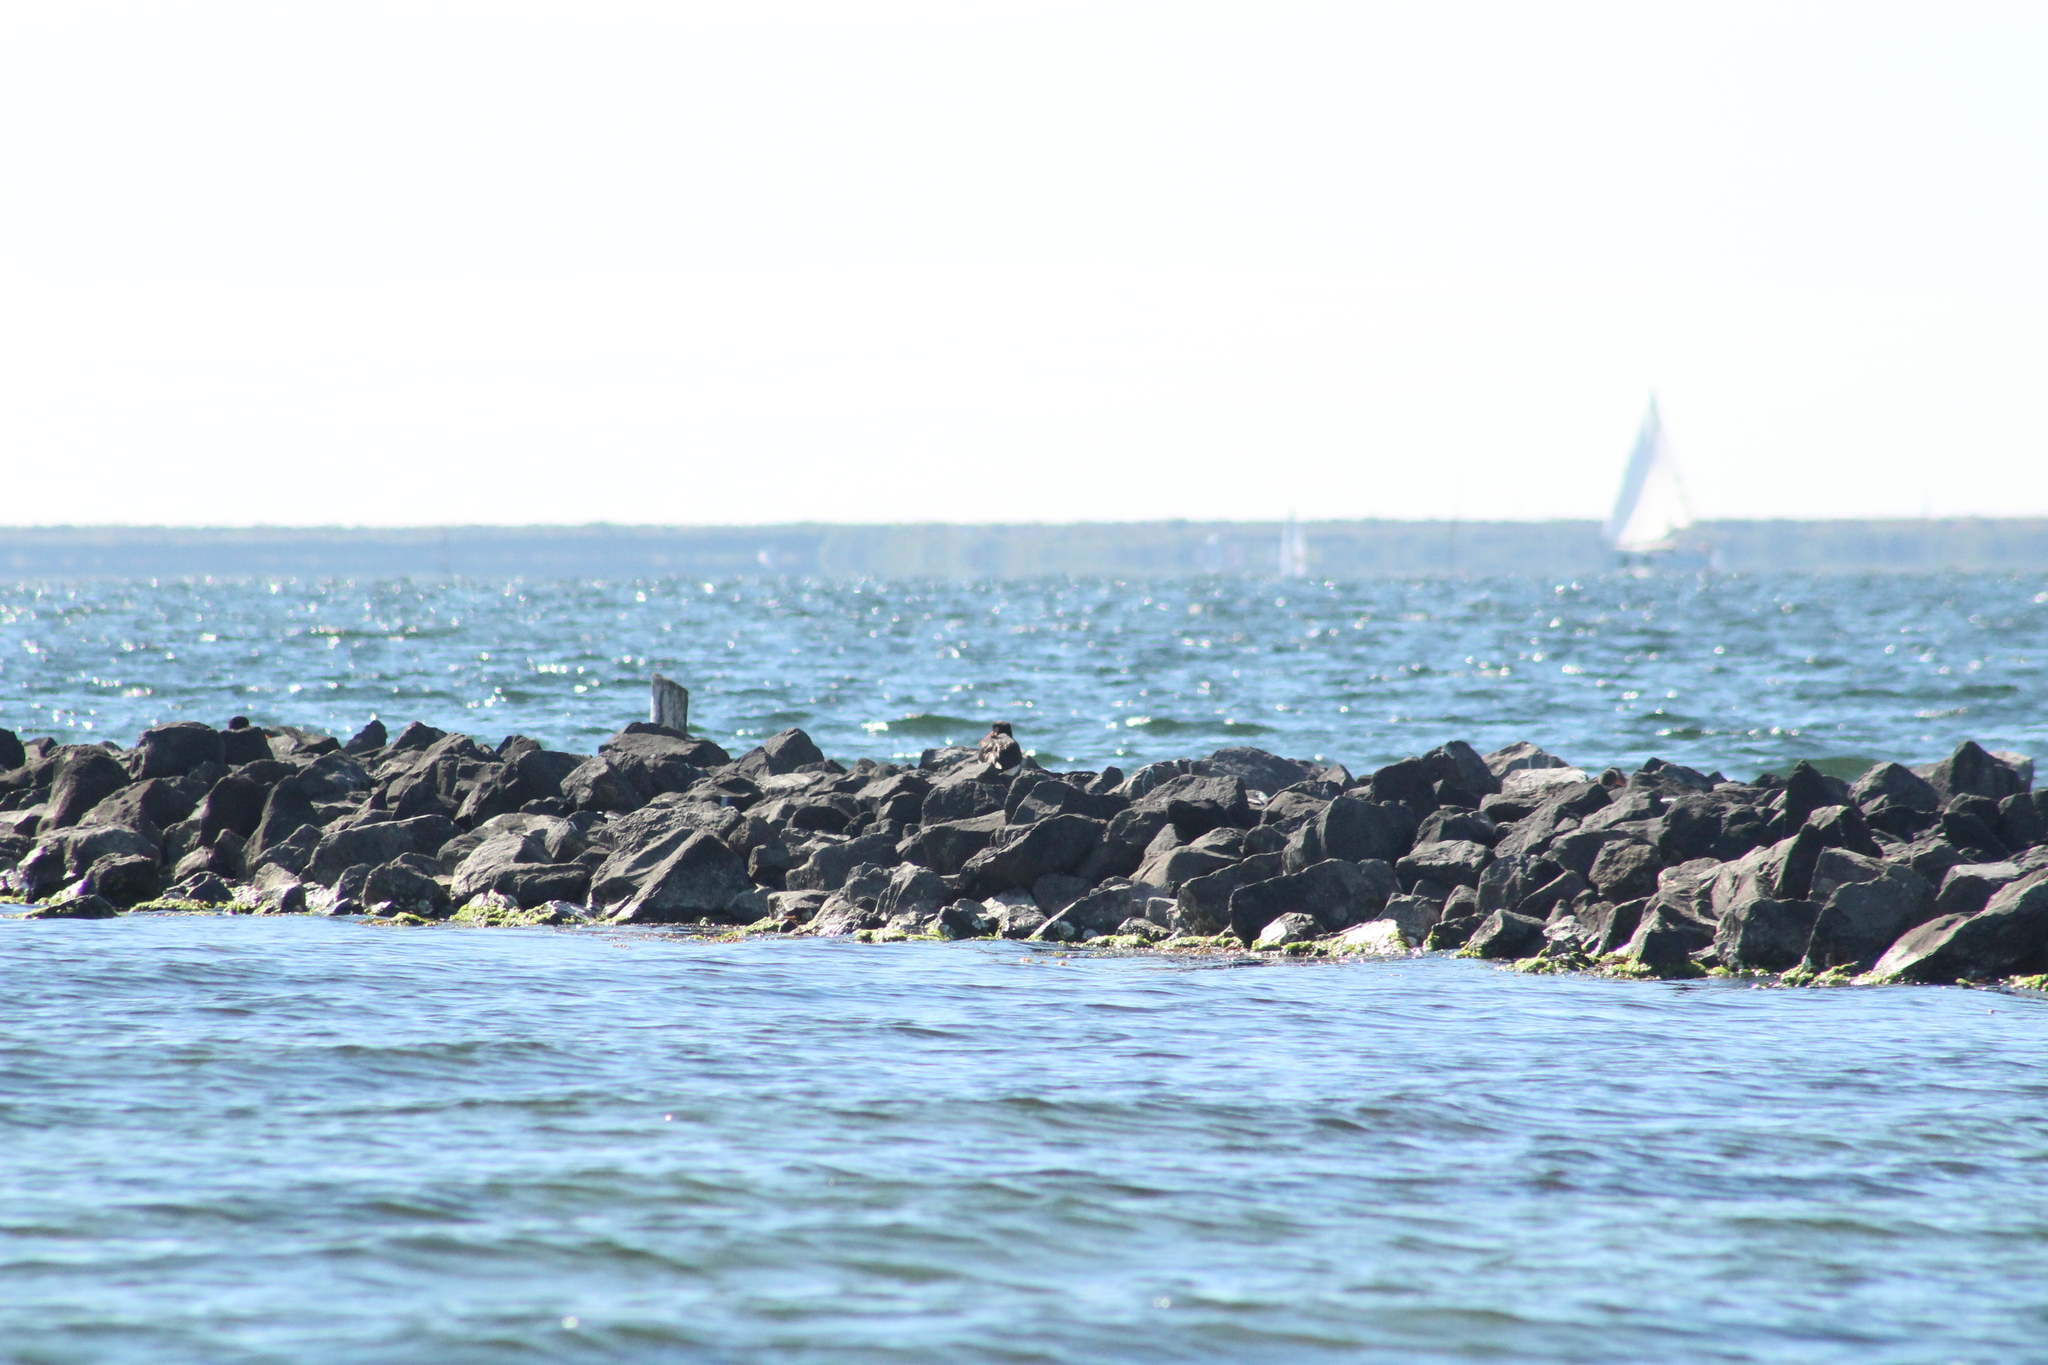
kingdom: Animalia
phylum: Chordata
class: Aves
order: Charadriiformes
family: Haematopodidae
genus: Haematopus
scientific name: Haematopus ostralegus
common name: Eurasian oystercatcher
